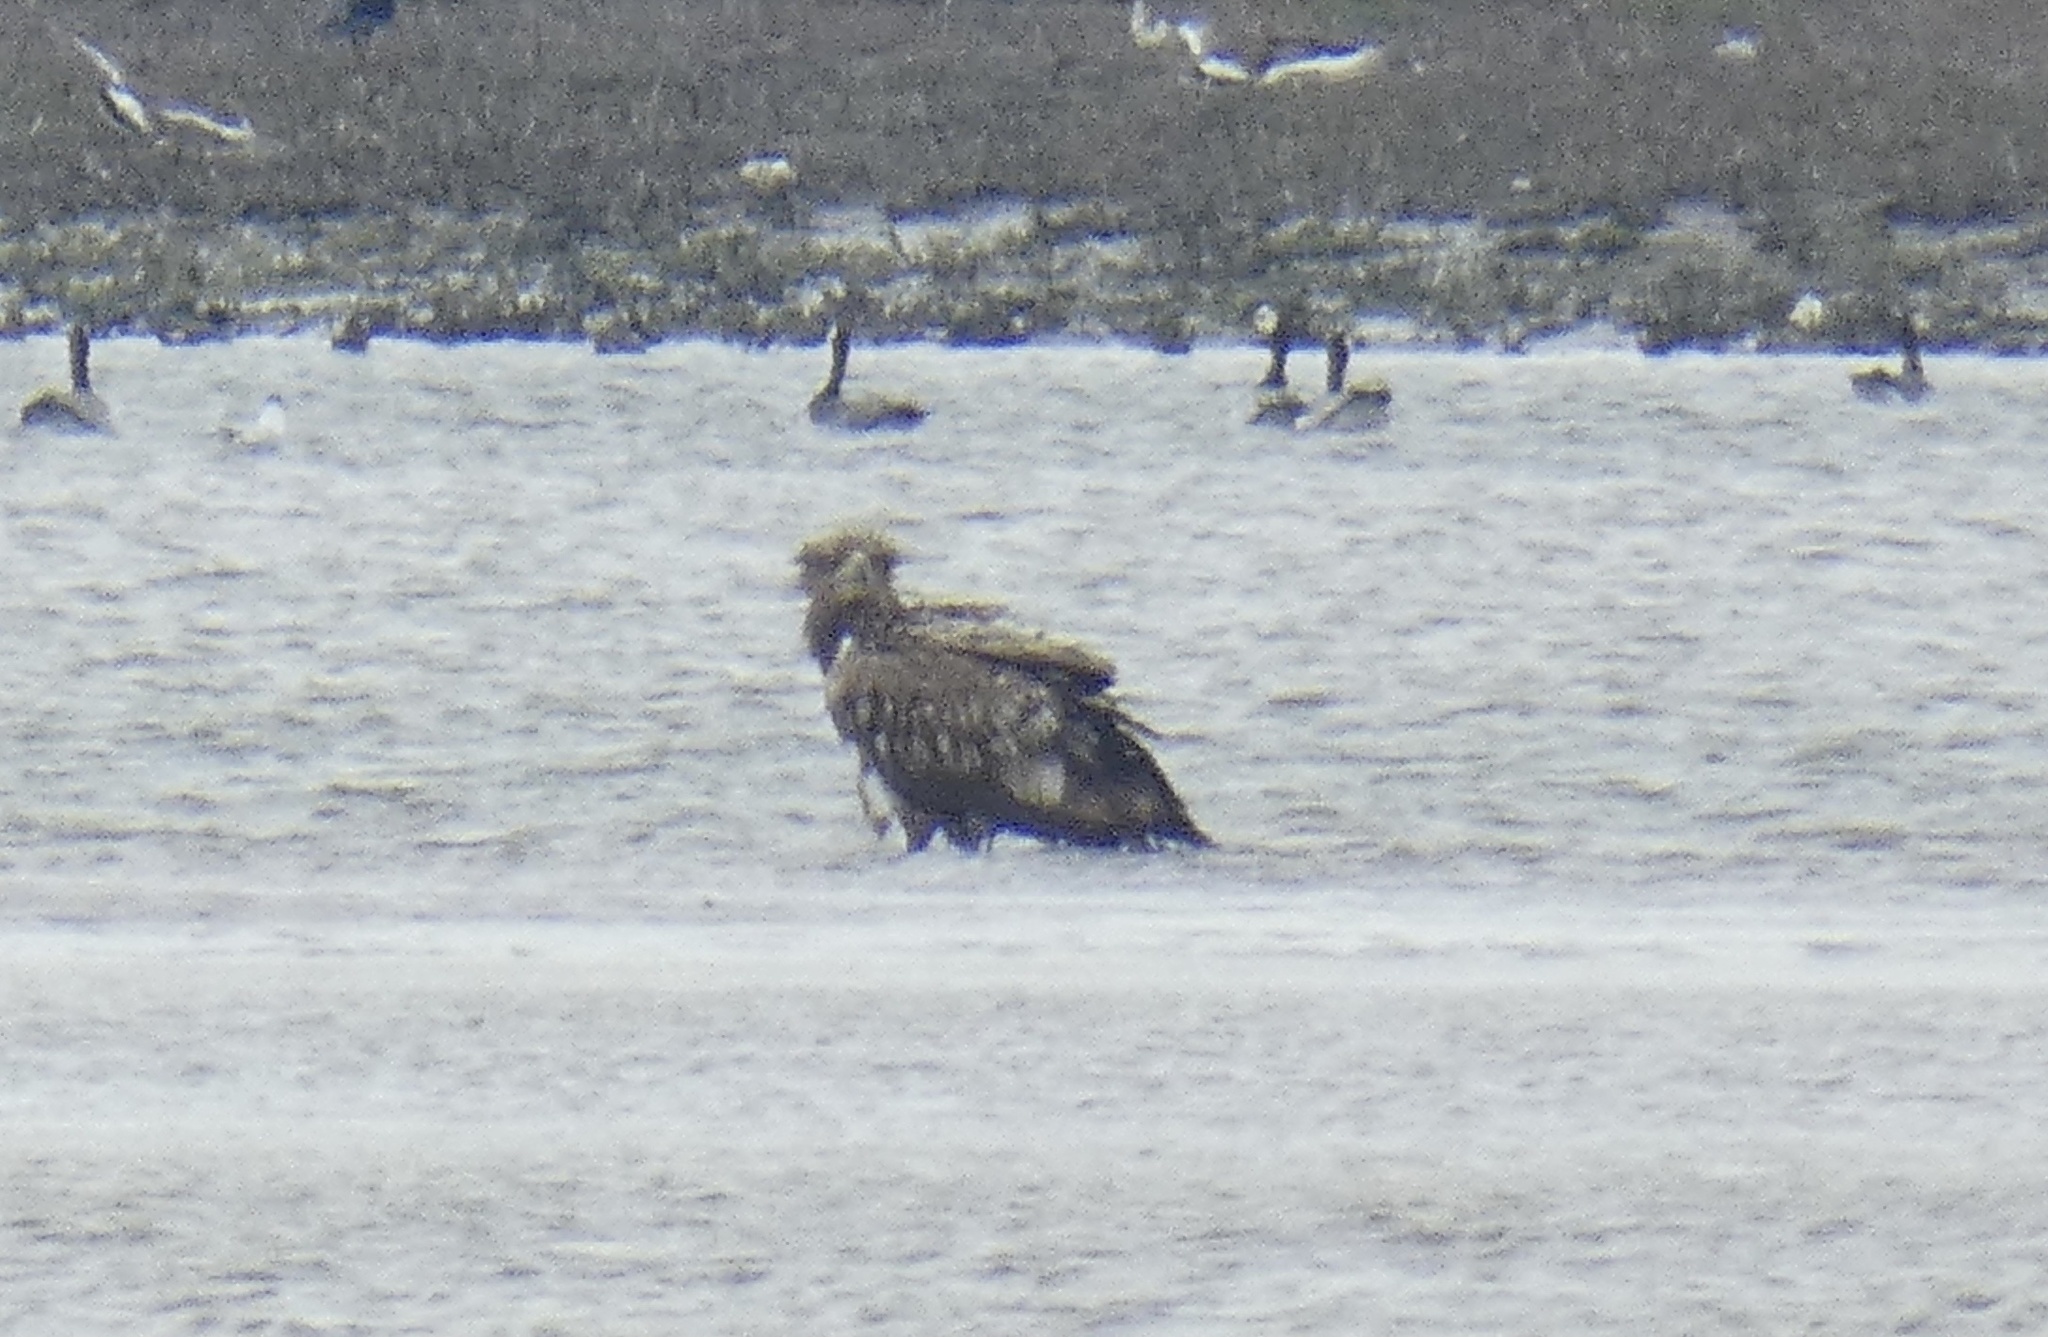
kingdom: Animalia
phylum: Chordata
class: Aves
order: Accipitriformes
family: Accipitridae
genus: Haliaeetus
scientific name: Haliaeetus albicilla
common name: White-tailed eagle
